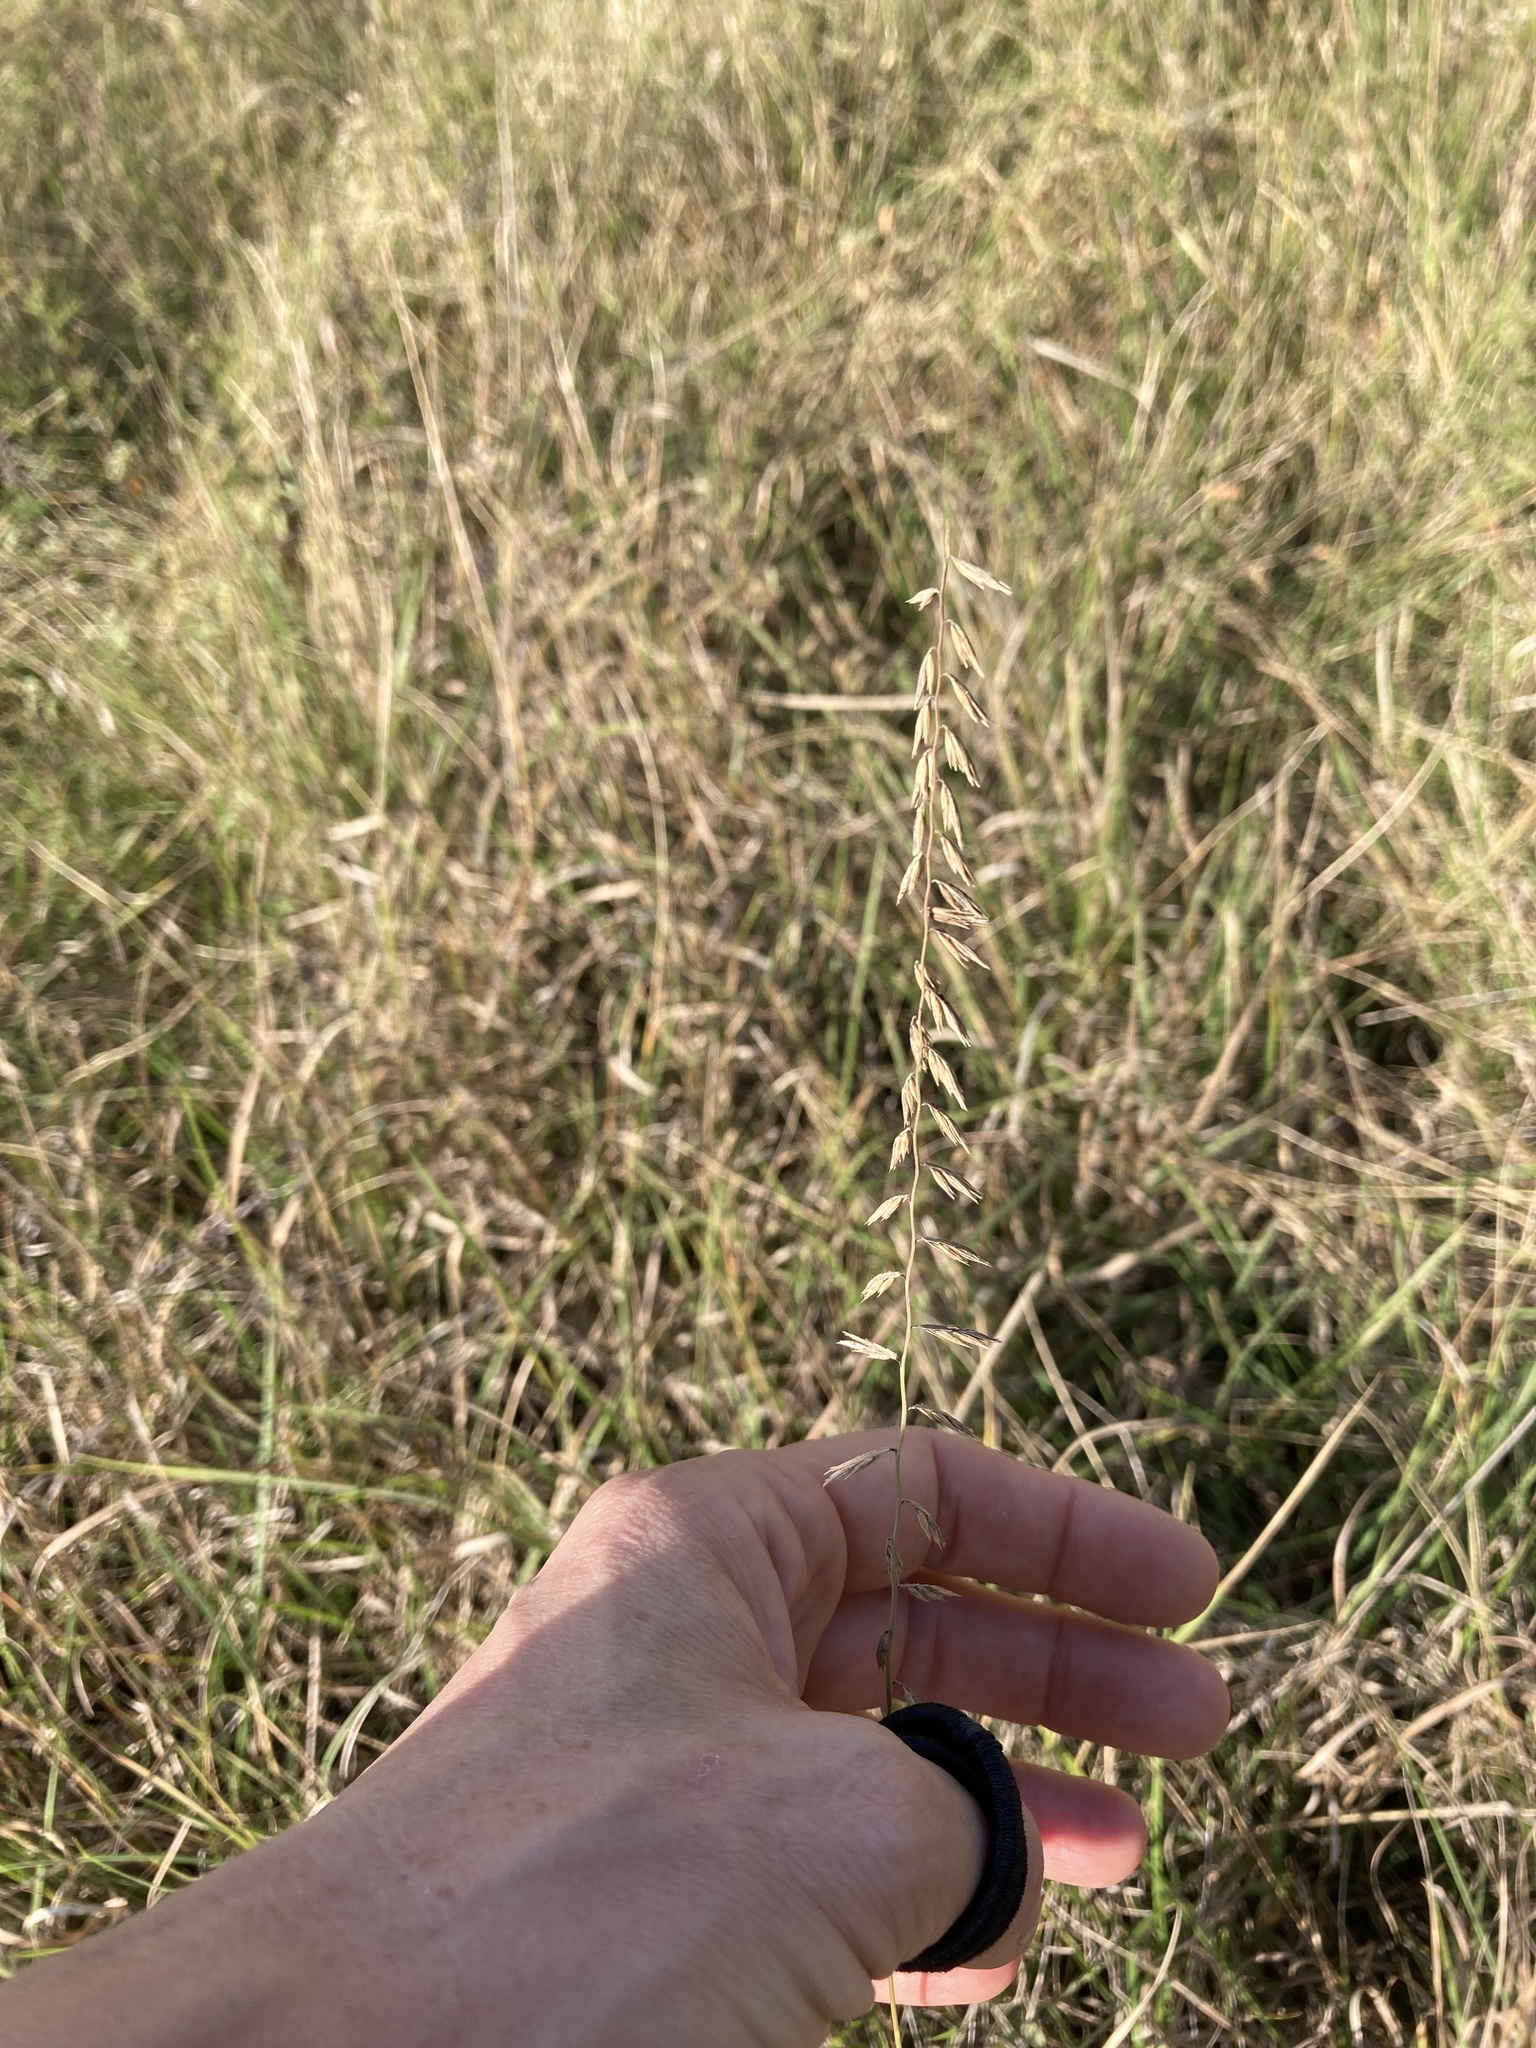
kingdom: Plantae
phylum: Tracheophyta
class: Liliopsida
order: Poales
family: Poaceae
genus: Bouteloua
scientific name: Bouteloua curtipendula
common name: Side-oats grama
